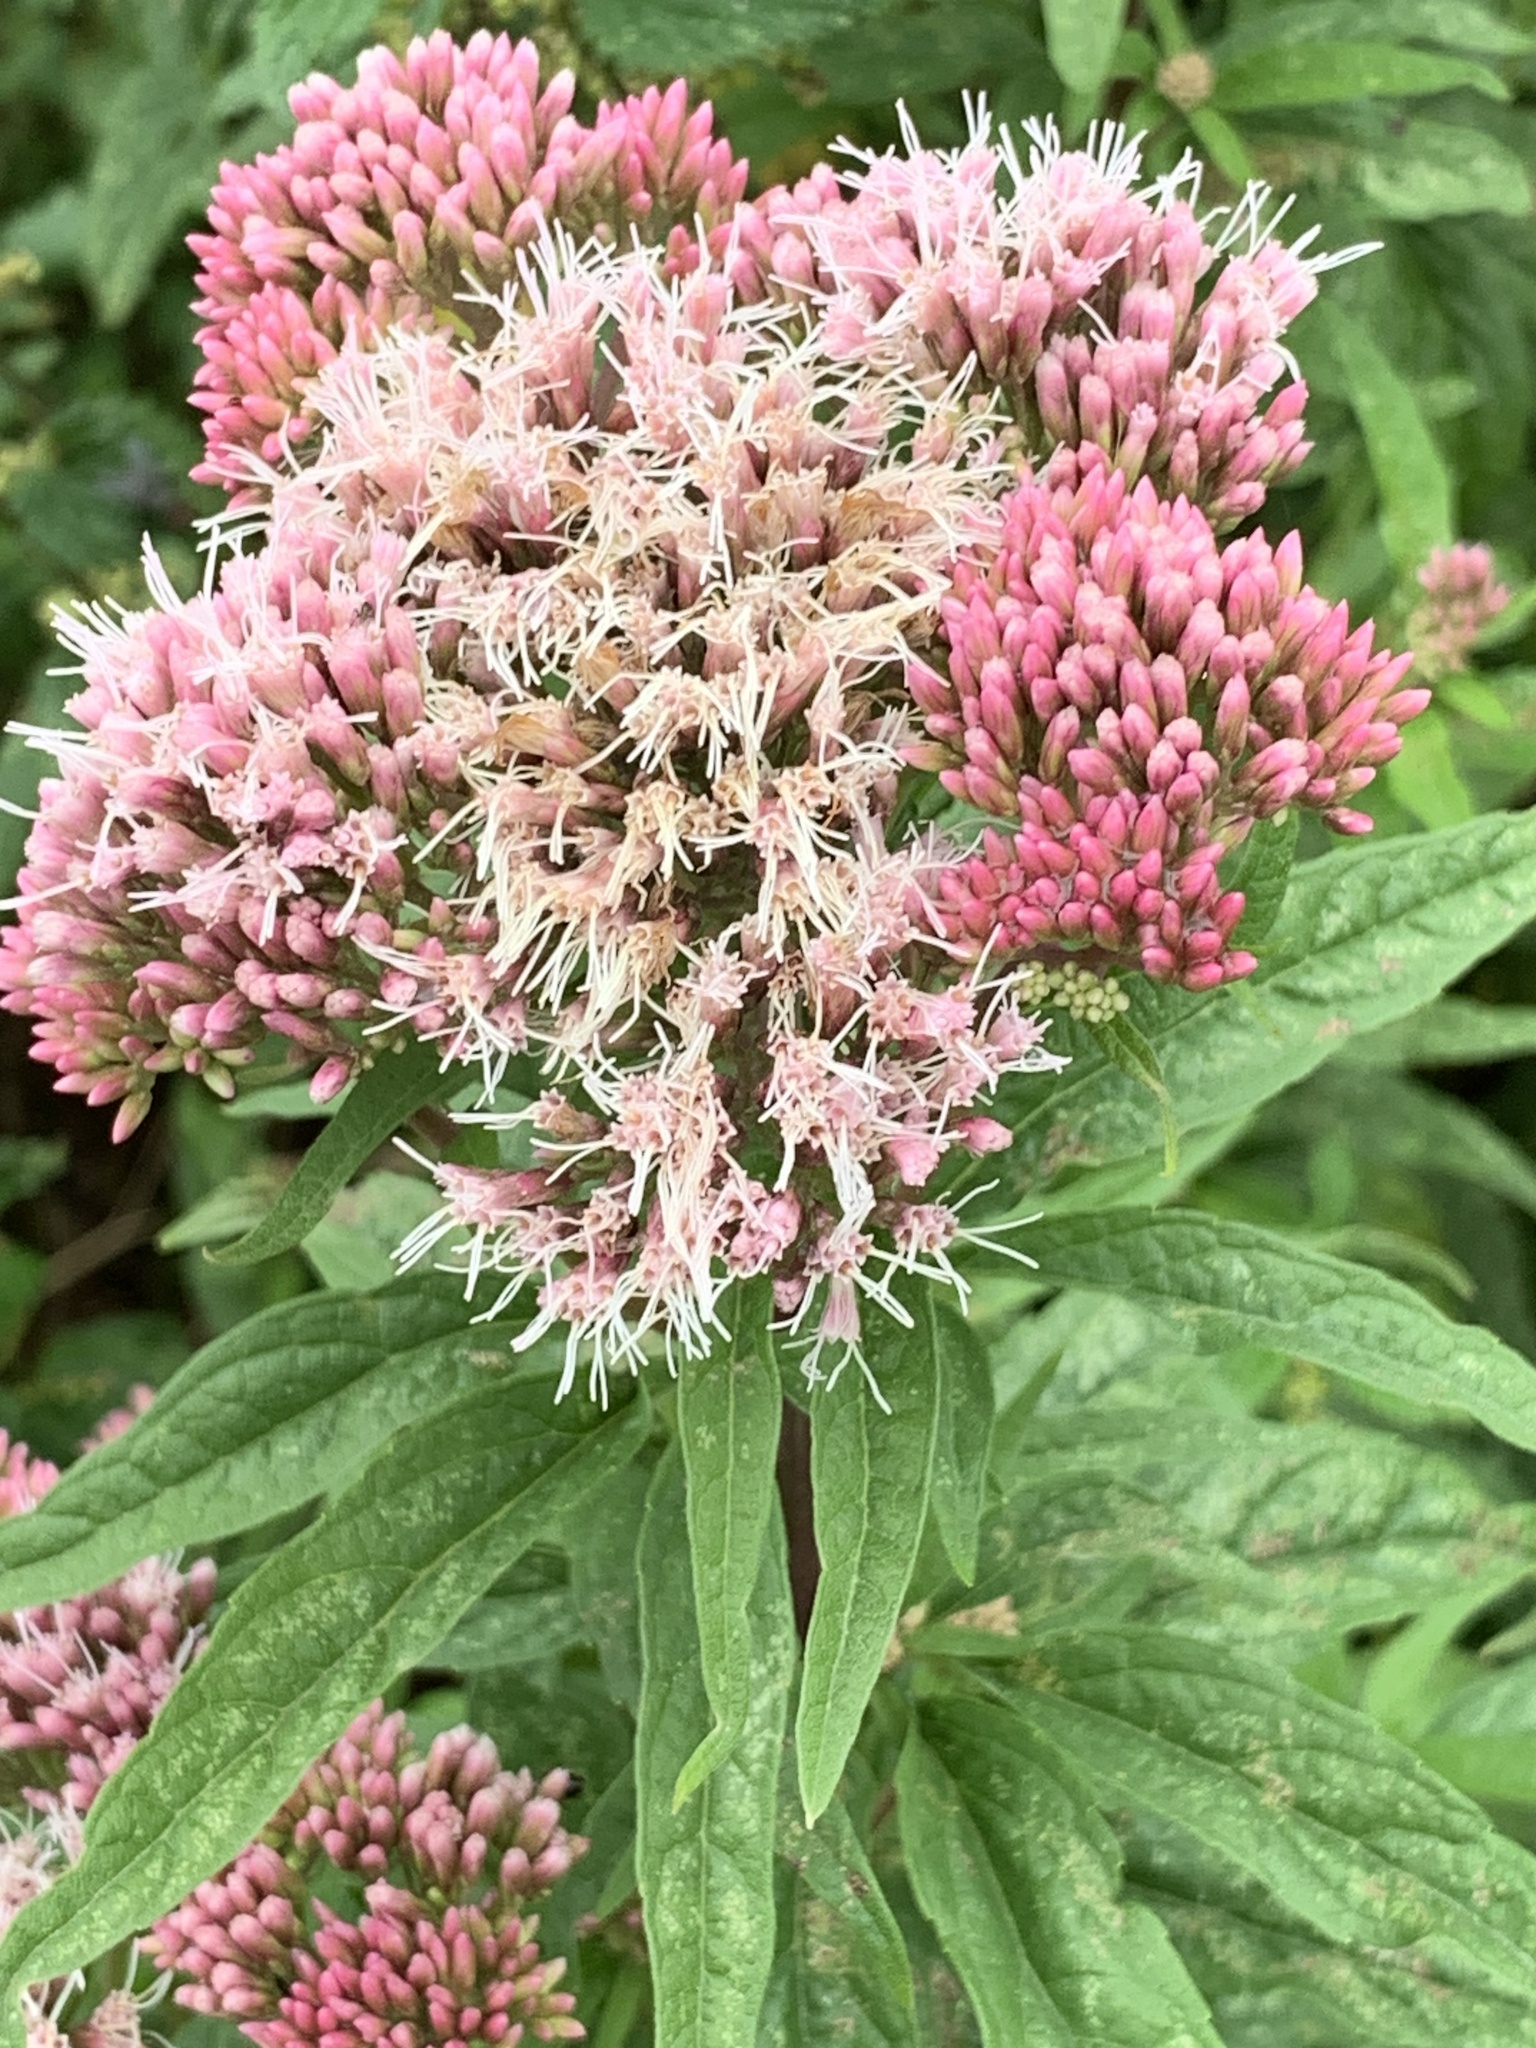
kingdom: Plantae
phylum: Tracheophyta
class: Magnoliopsida
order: Asterales
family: Asteraceae
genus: Eupatorium
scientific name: Eupatorium cannabinum
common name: Hemp-agrimony
